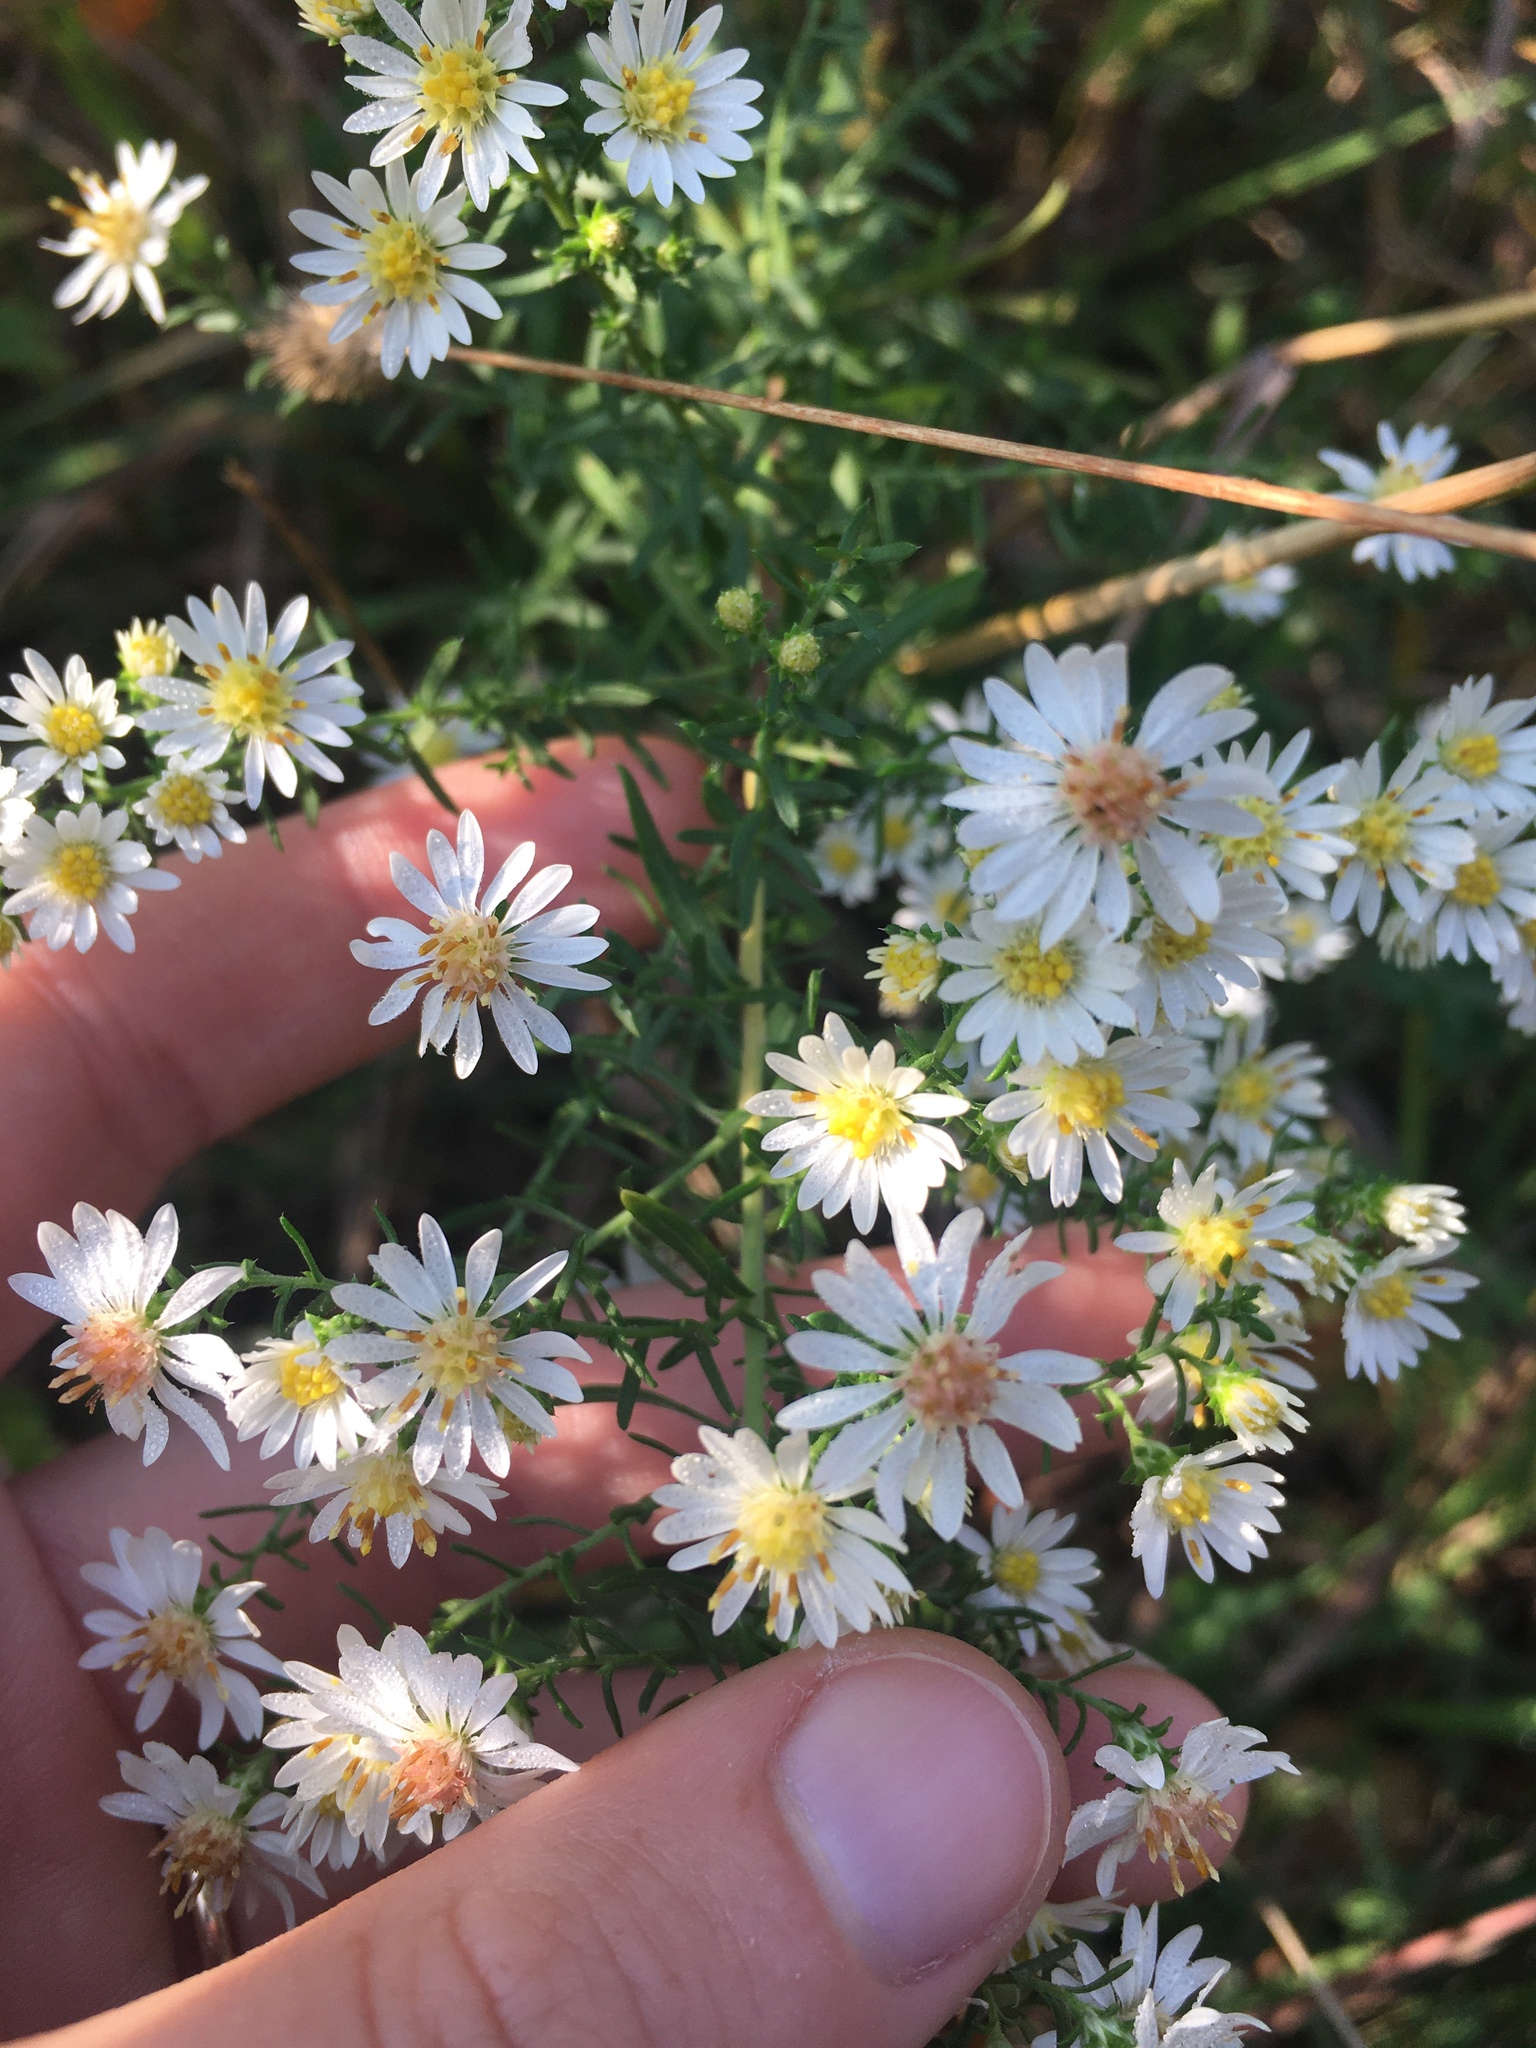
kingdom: Plantae
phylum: Tracheophyta
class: Magnoliopsida
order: Asterales
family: Asteraceae
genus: Symphyotrichum
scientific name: Symphyotrichum ericoides
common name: Heath aster
